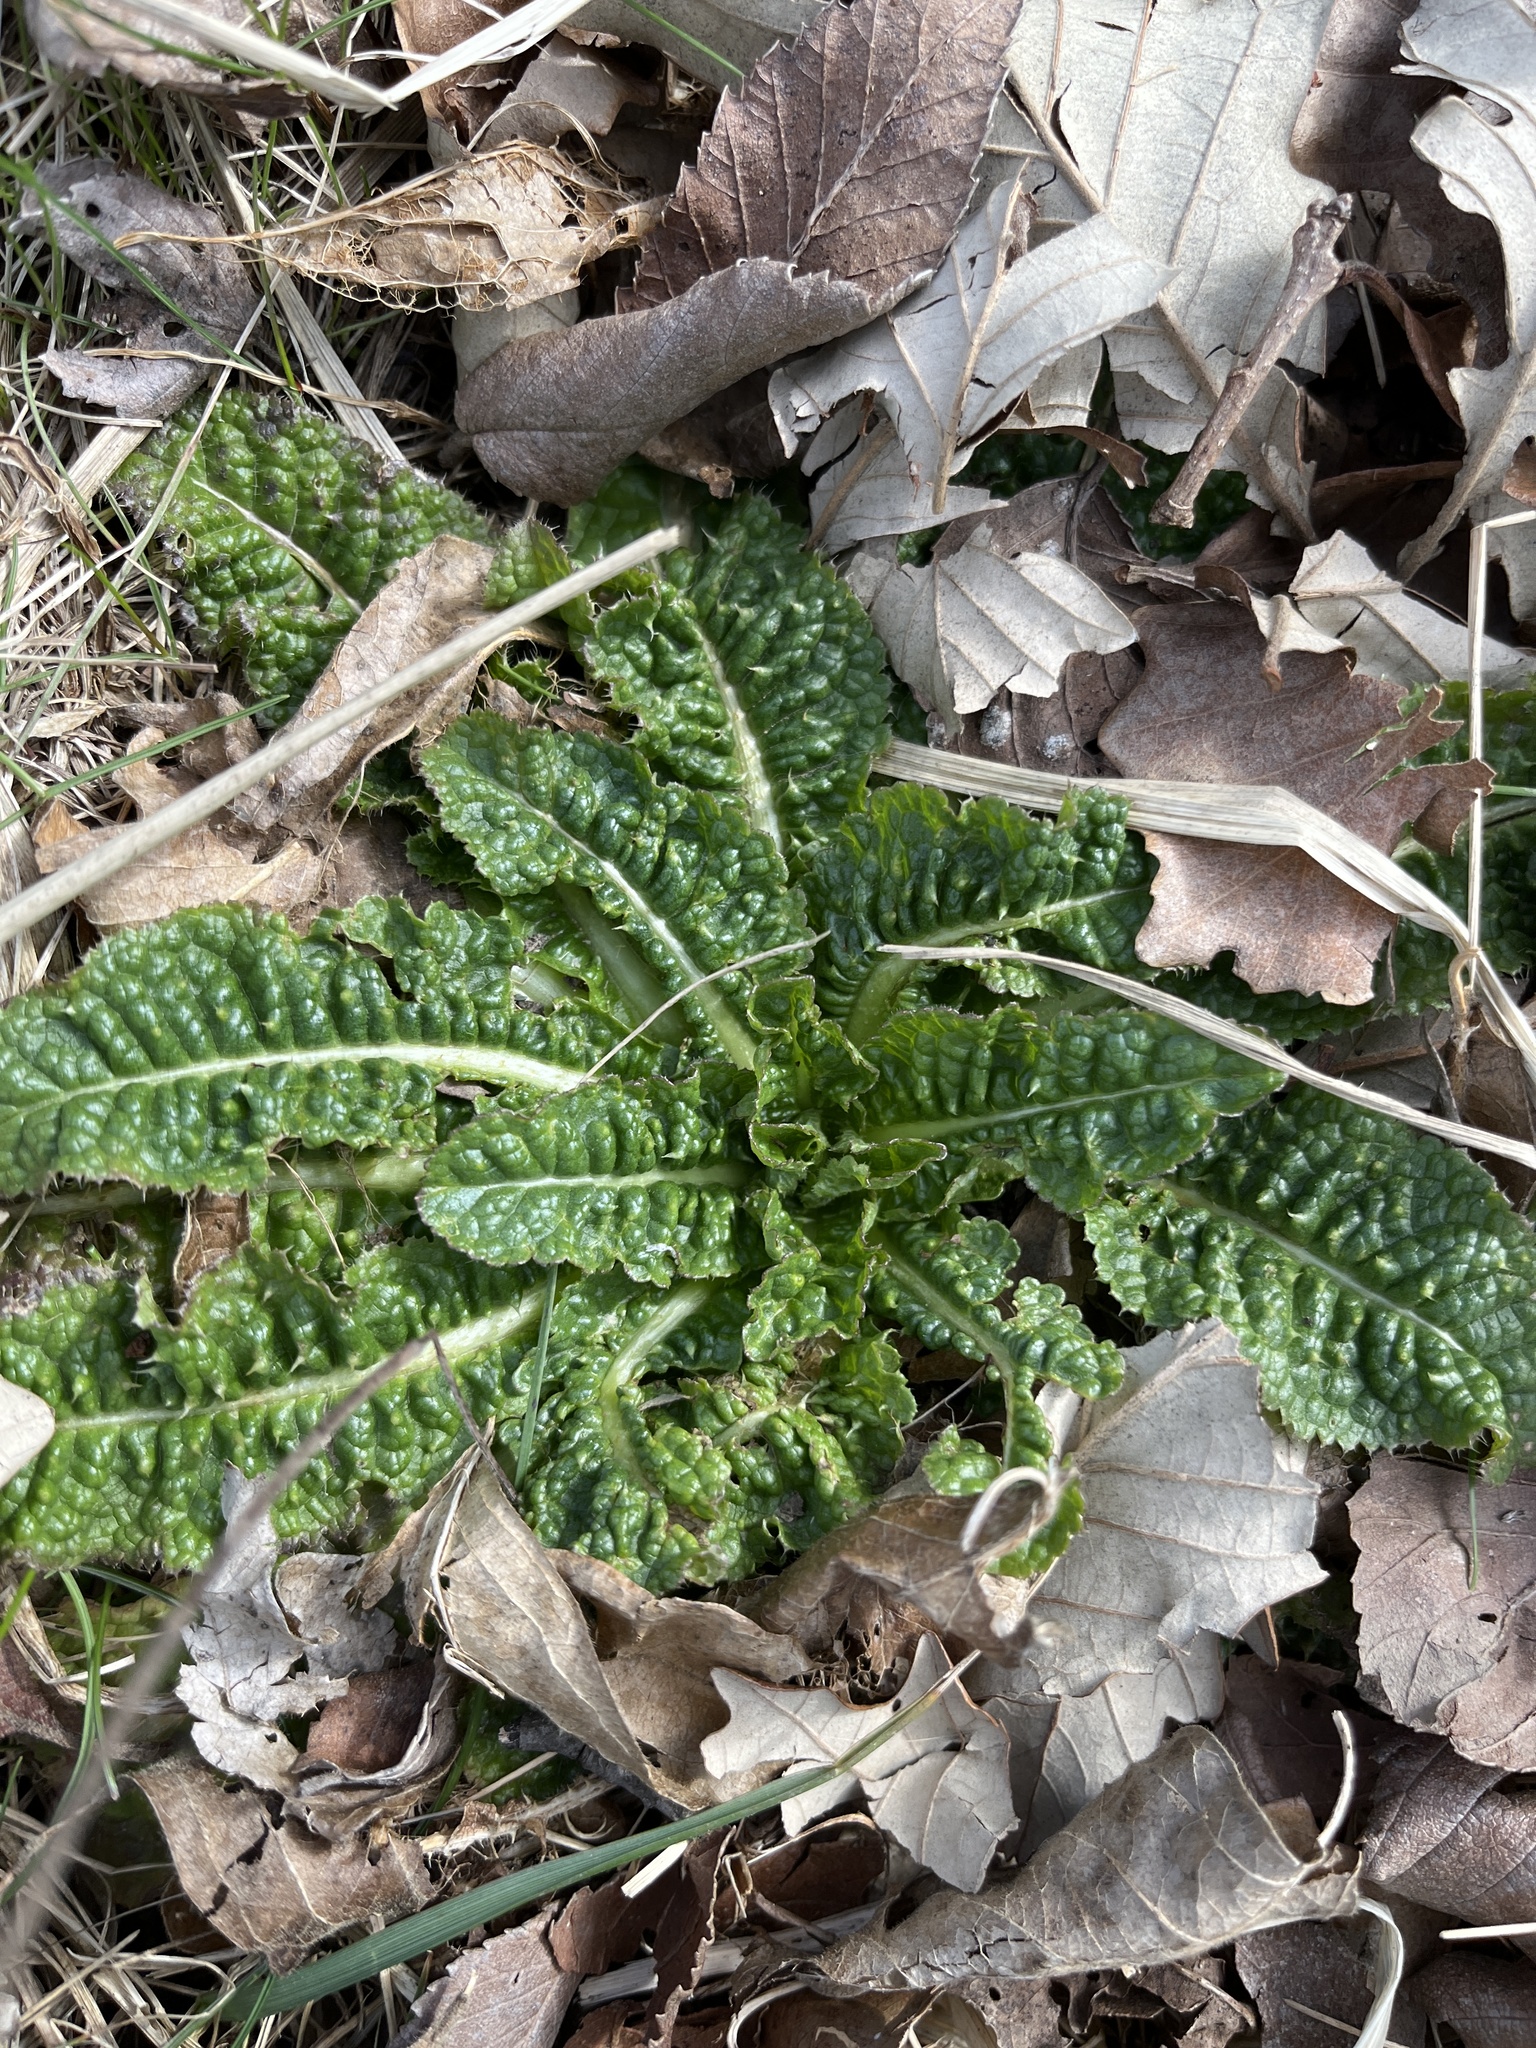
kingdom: Plantae
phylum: Tracheophyta
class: Magnoliopsida
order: Dipsacales
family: Caprifoliaceae
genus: Dipsacus
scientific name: Dipsacus fullonum
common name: Teasel
